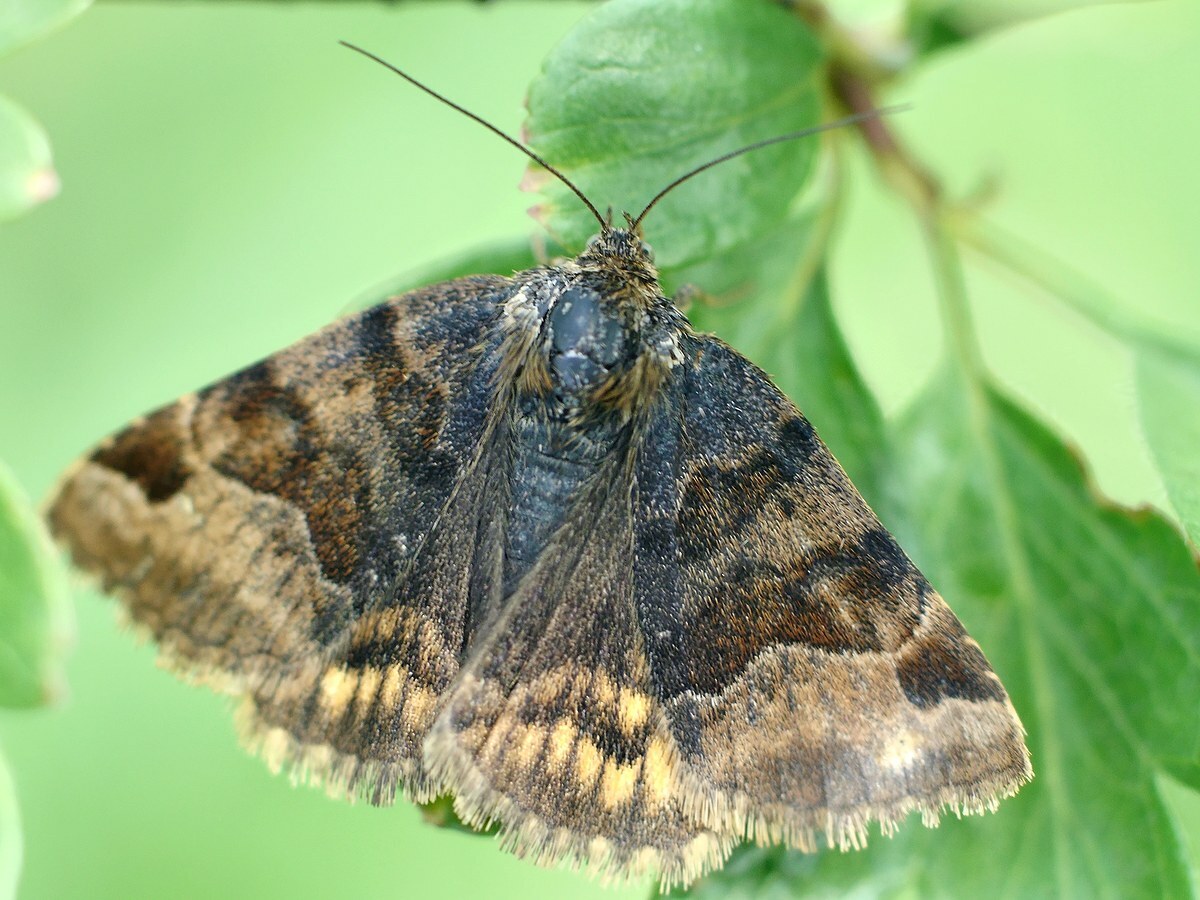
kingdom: Animalia
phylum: Arthropoda
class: Insecta
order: Lepidoptera
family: Erebidae
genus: Euclidia
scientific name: Euclidia glyphica
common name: Burnet companion
